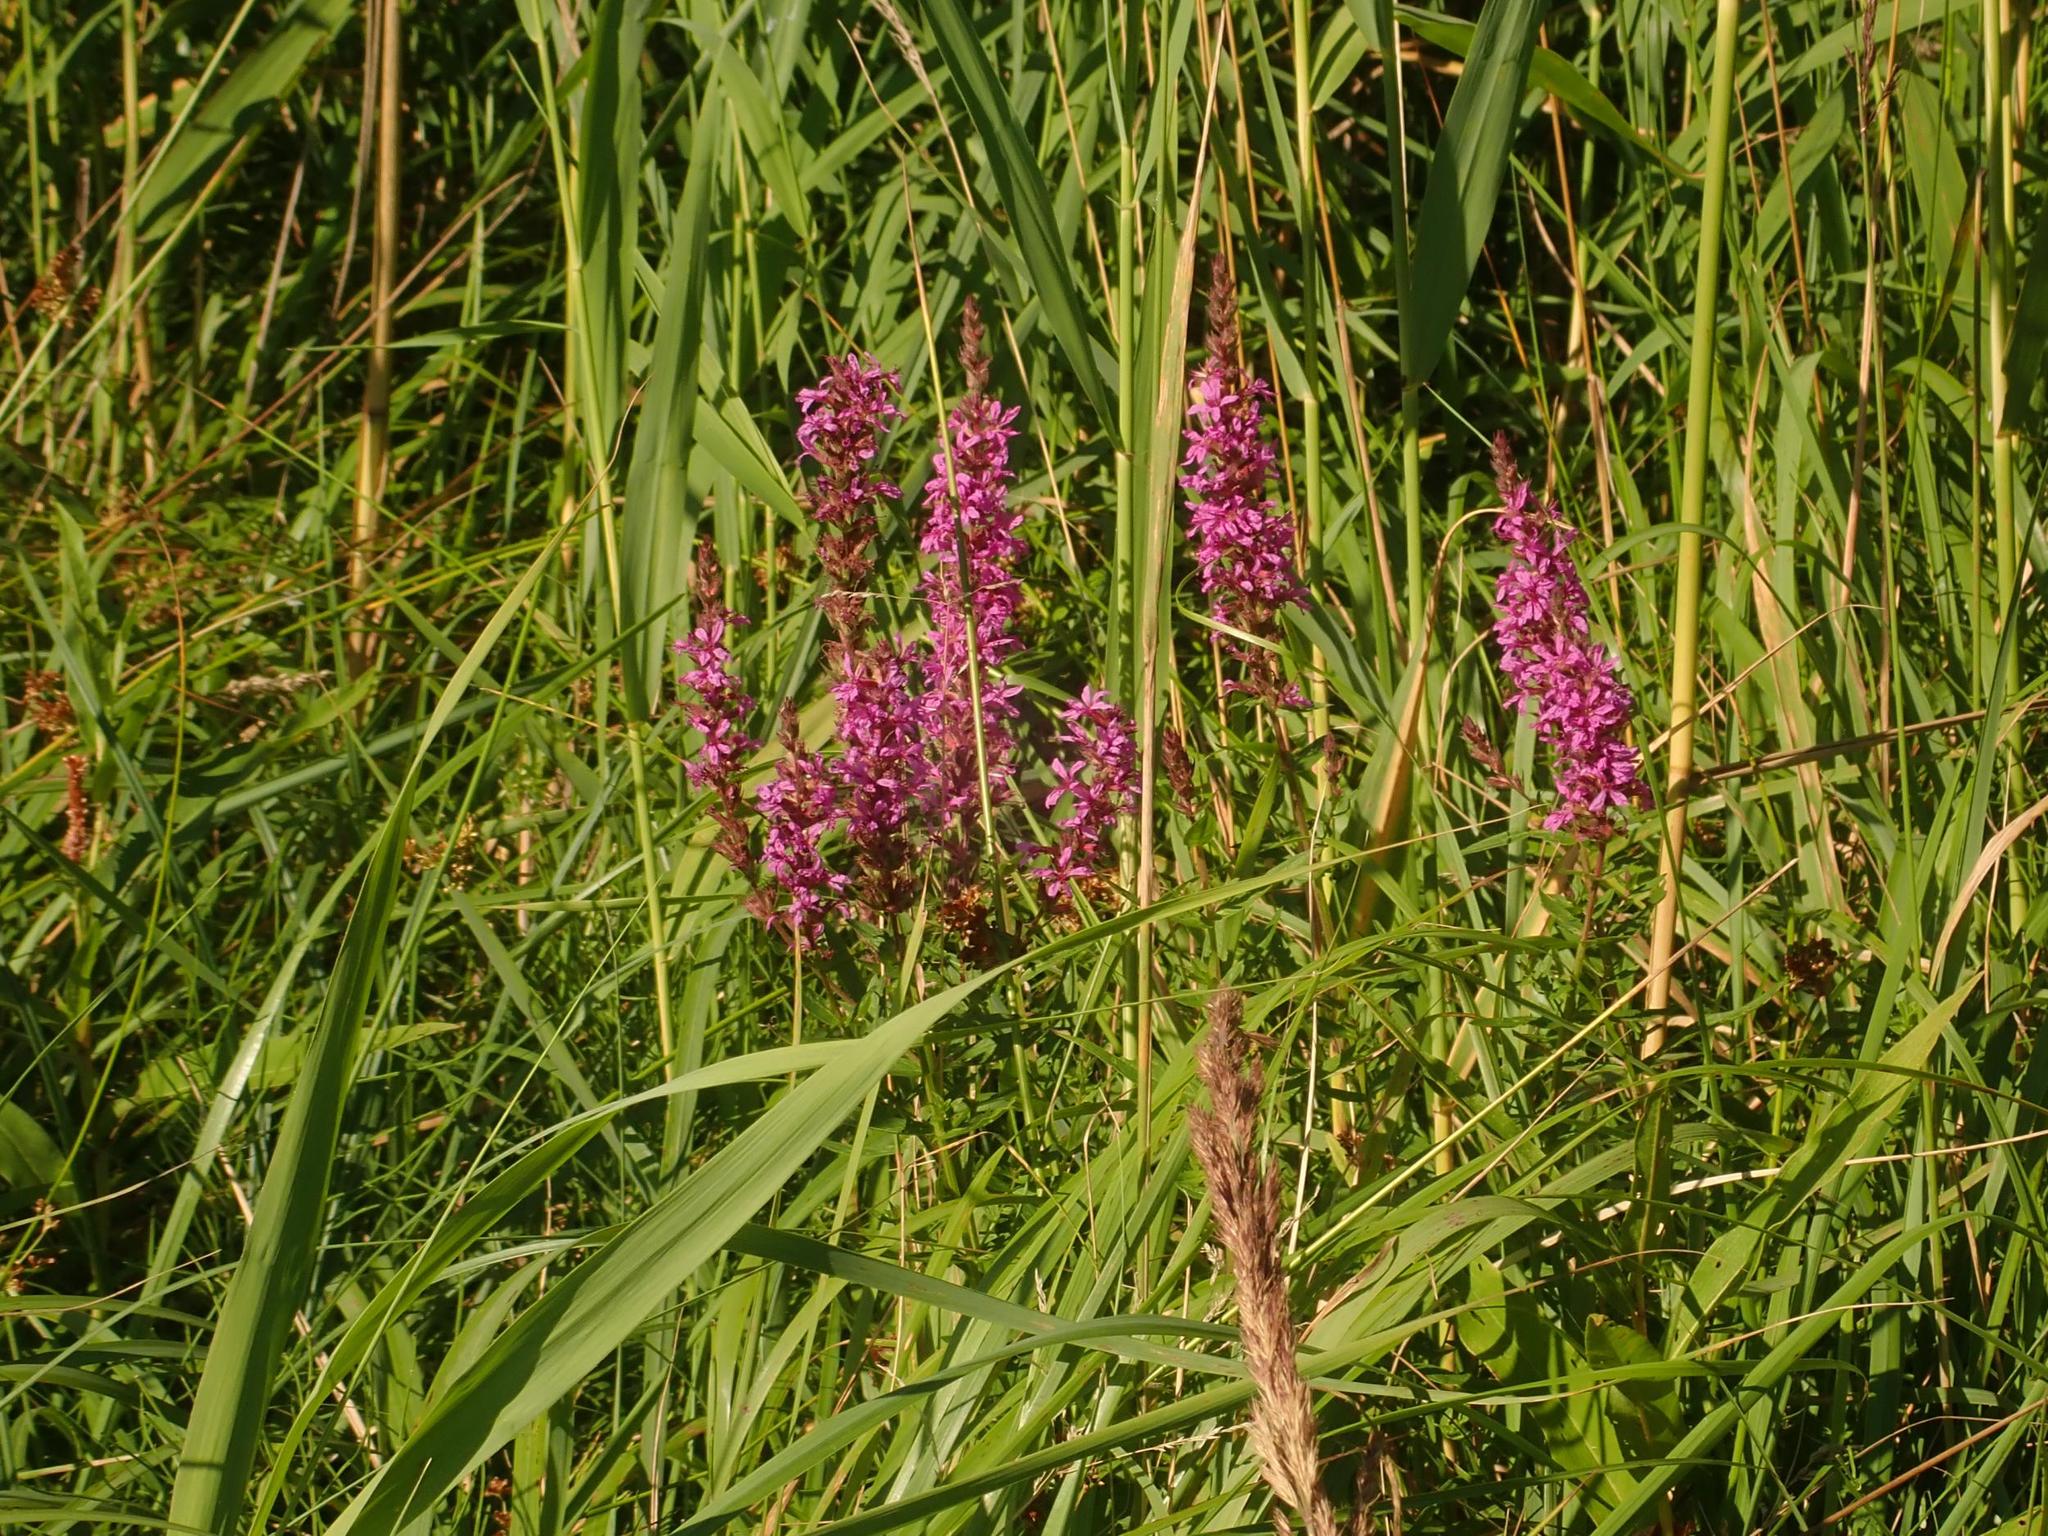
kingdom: Plantae
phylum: Tracheophyta
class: Magnoliopsida
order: Myrtales
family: Lythraceae
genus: Lythrum
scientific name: Lythrum salicaria
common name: Purple loosestrife
